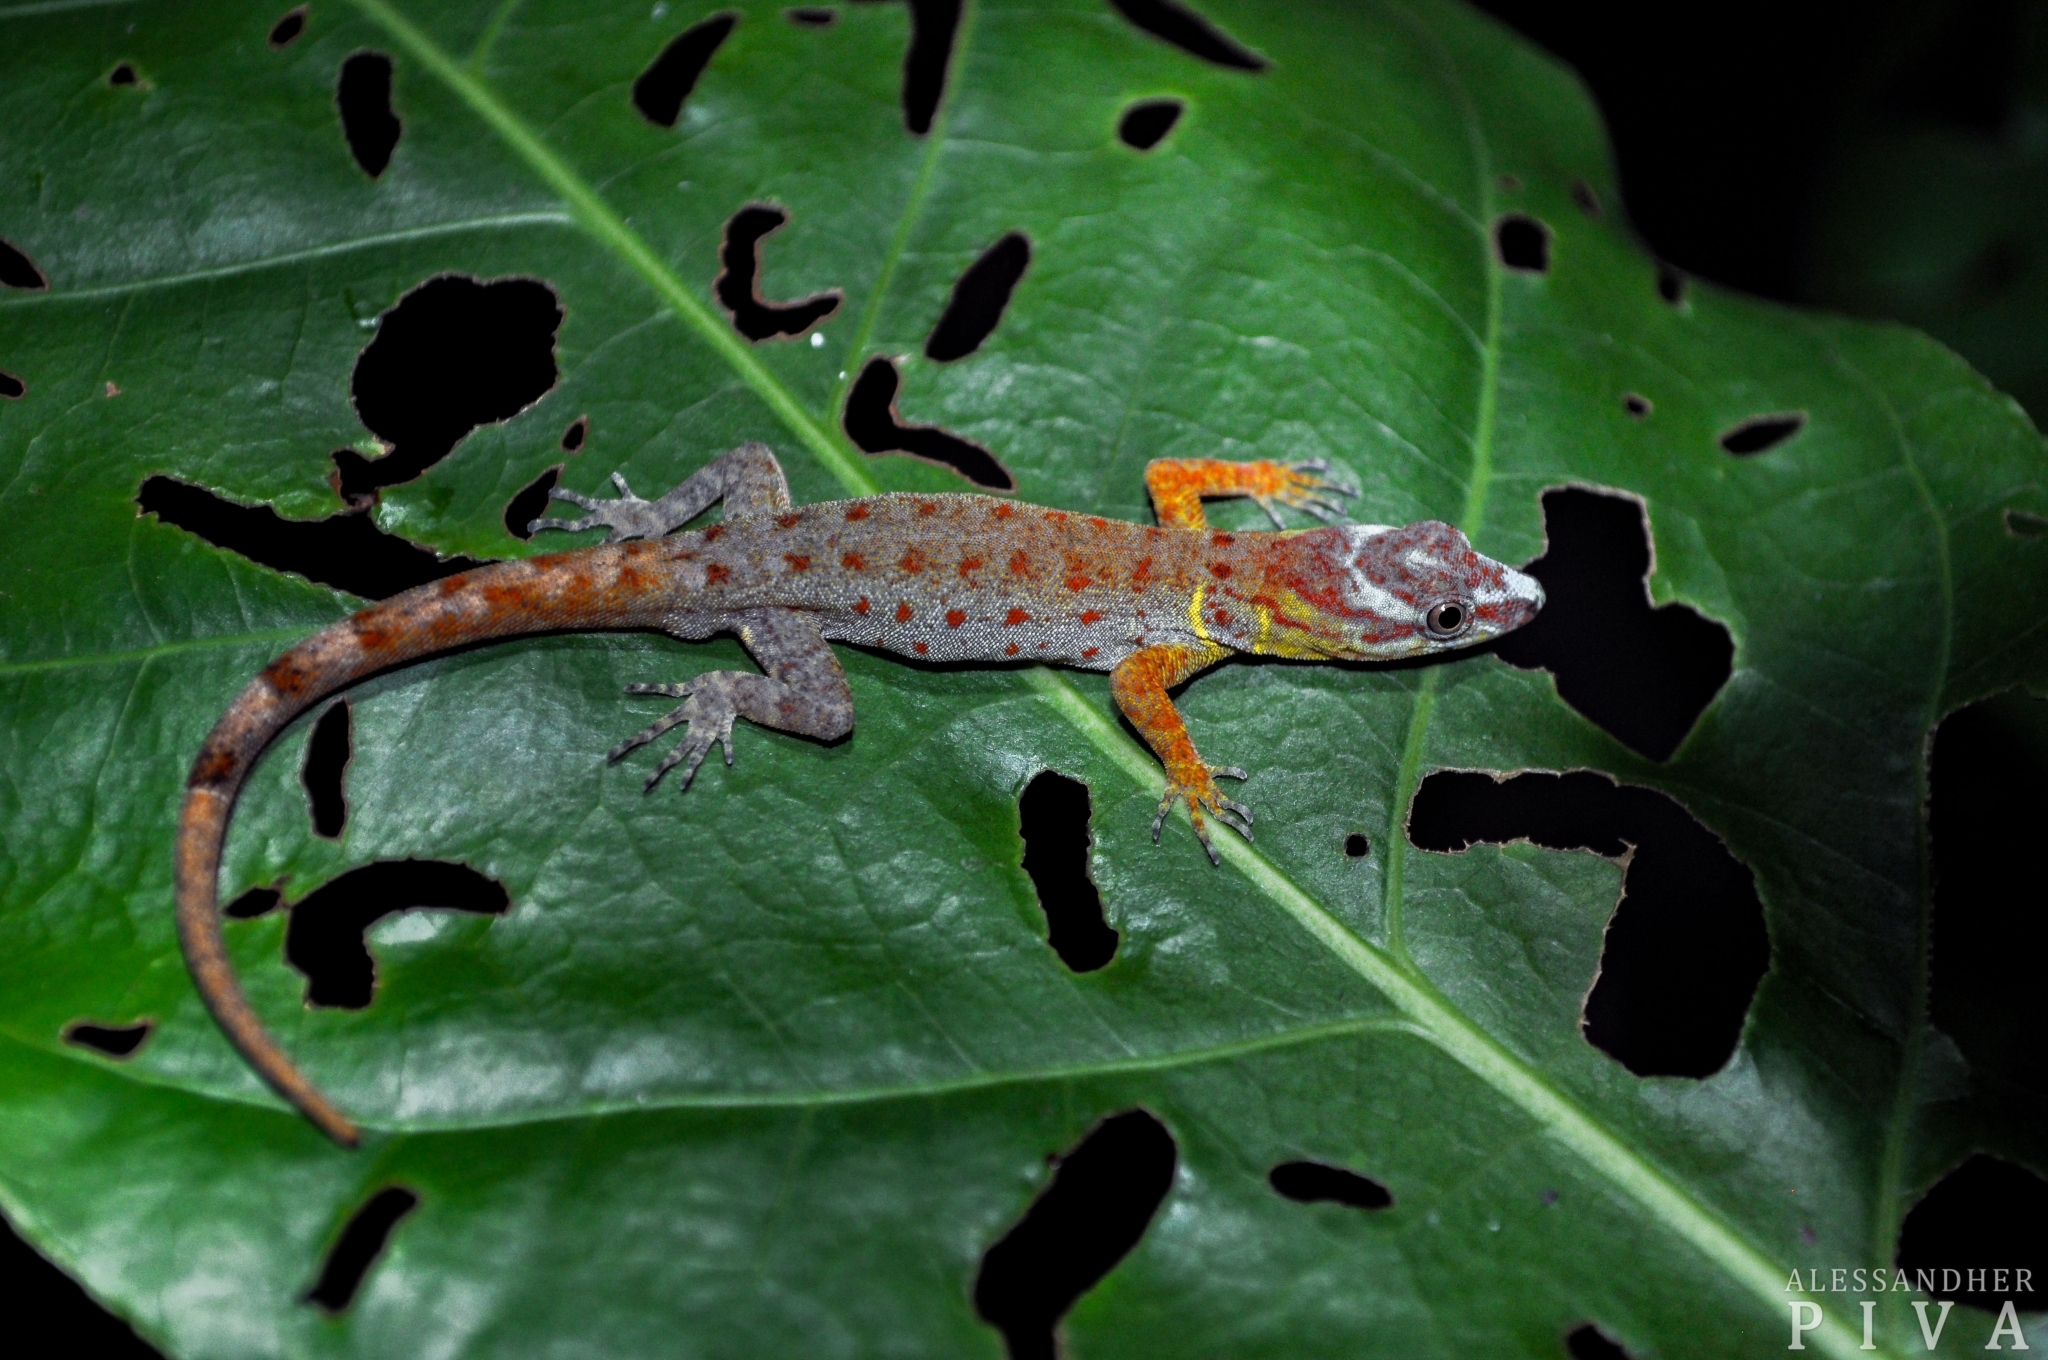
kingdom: Animalia
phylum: Chordata
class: Squamata
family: Sphaerodactylidae
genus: Gonatodes
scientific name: Gonatodes humeralis
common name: South american clawed gecko
